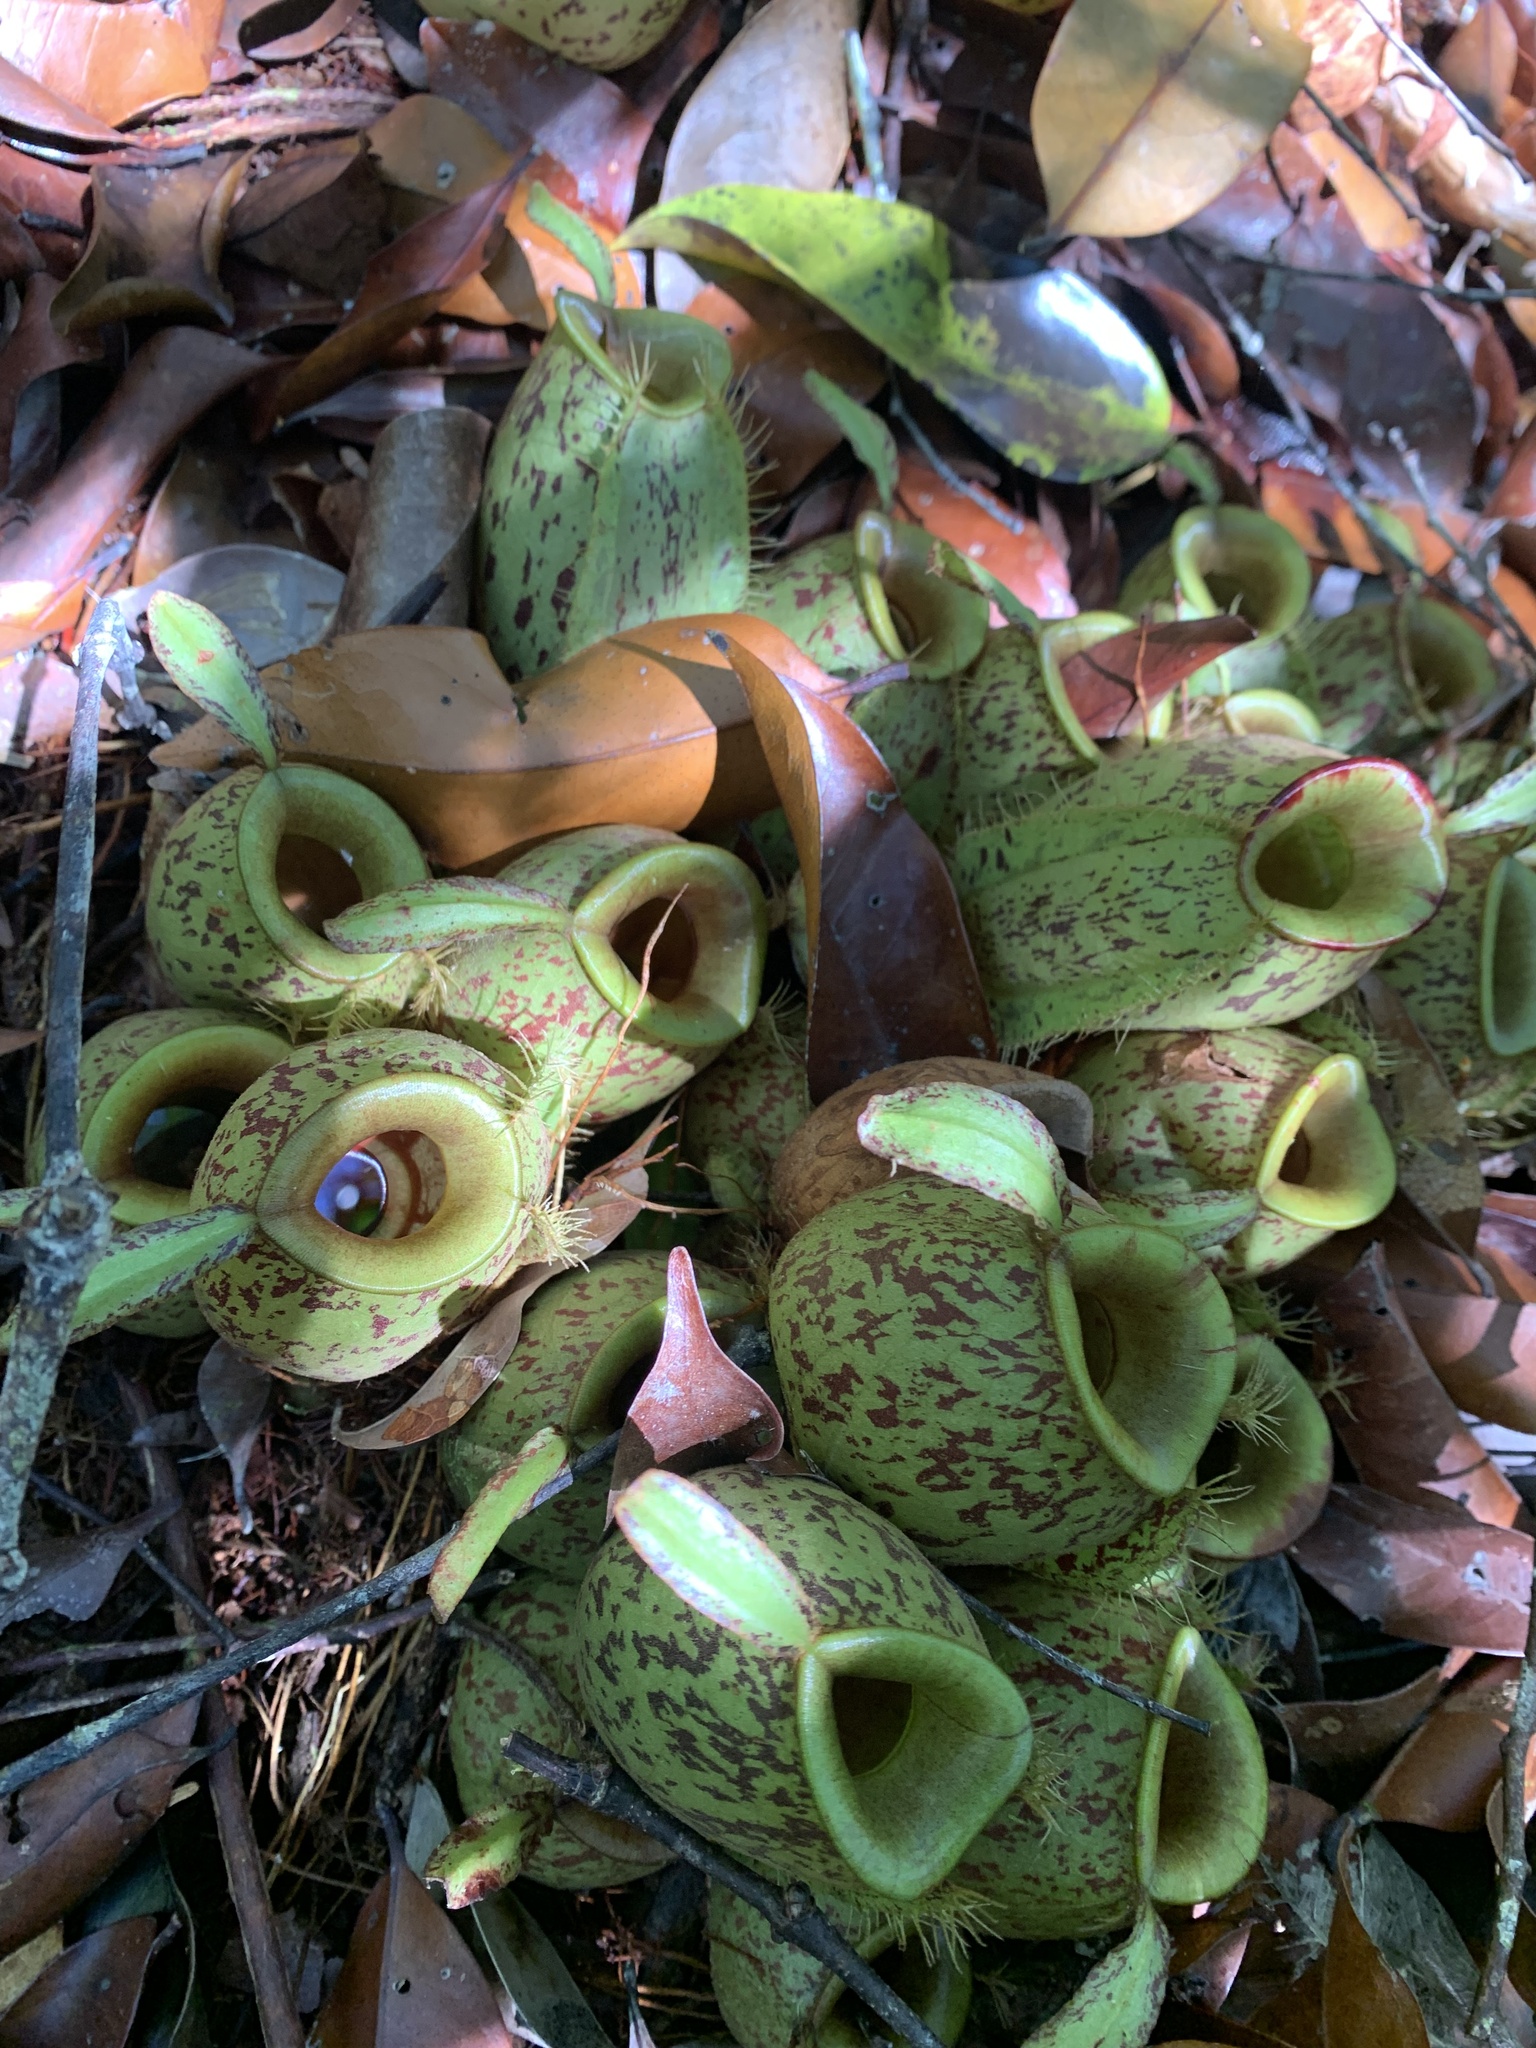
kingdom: Plantae
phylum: Tracheophyta
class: Magnoliopsida
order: Caryophyllales
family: Nepenthaceae
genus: Nepenthes
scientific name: Nepenthes ampullaria
